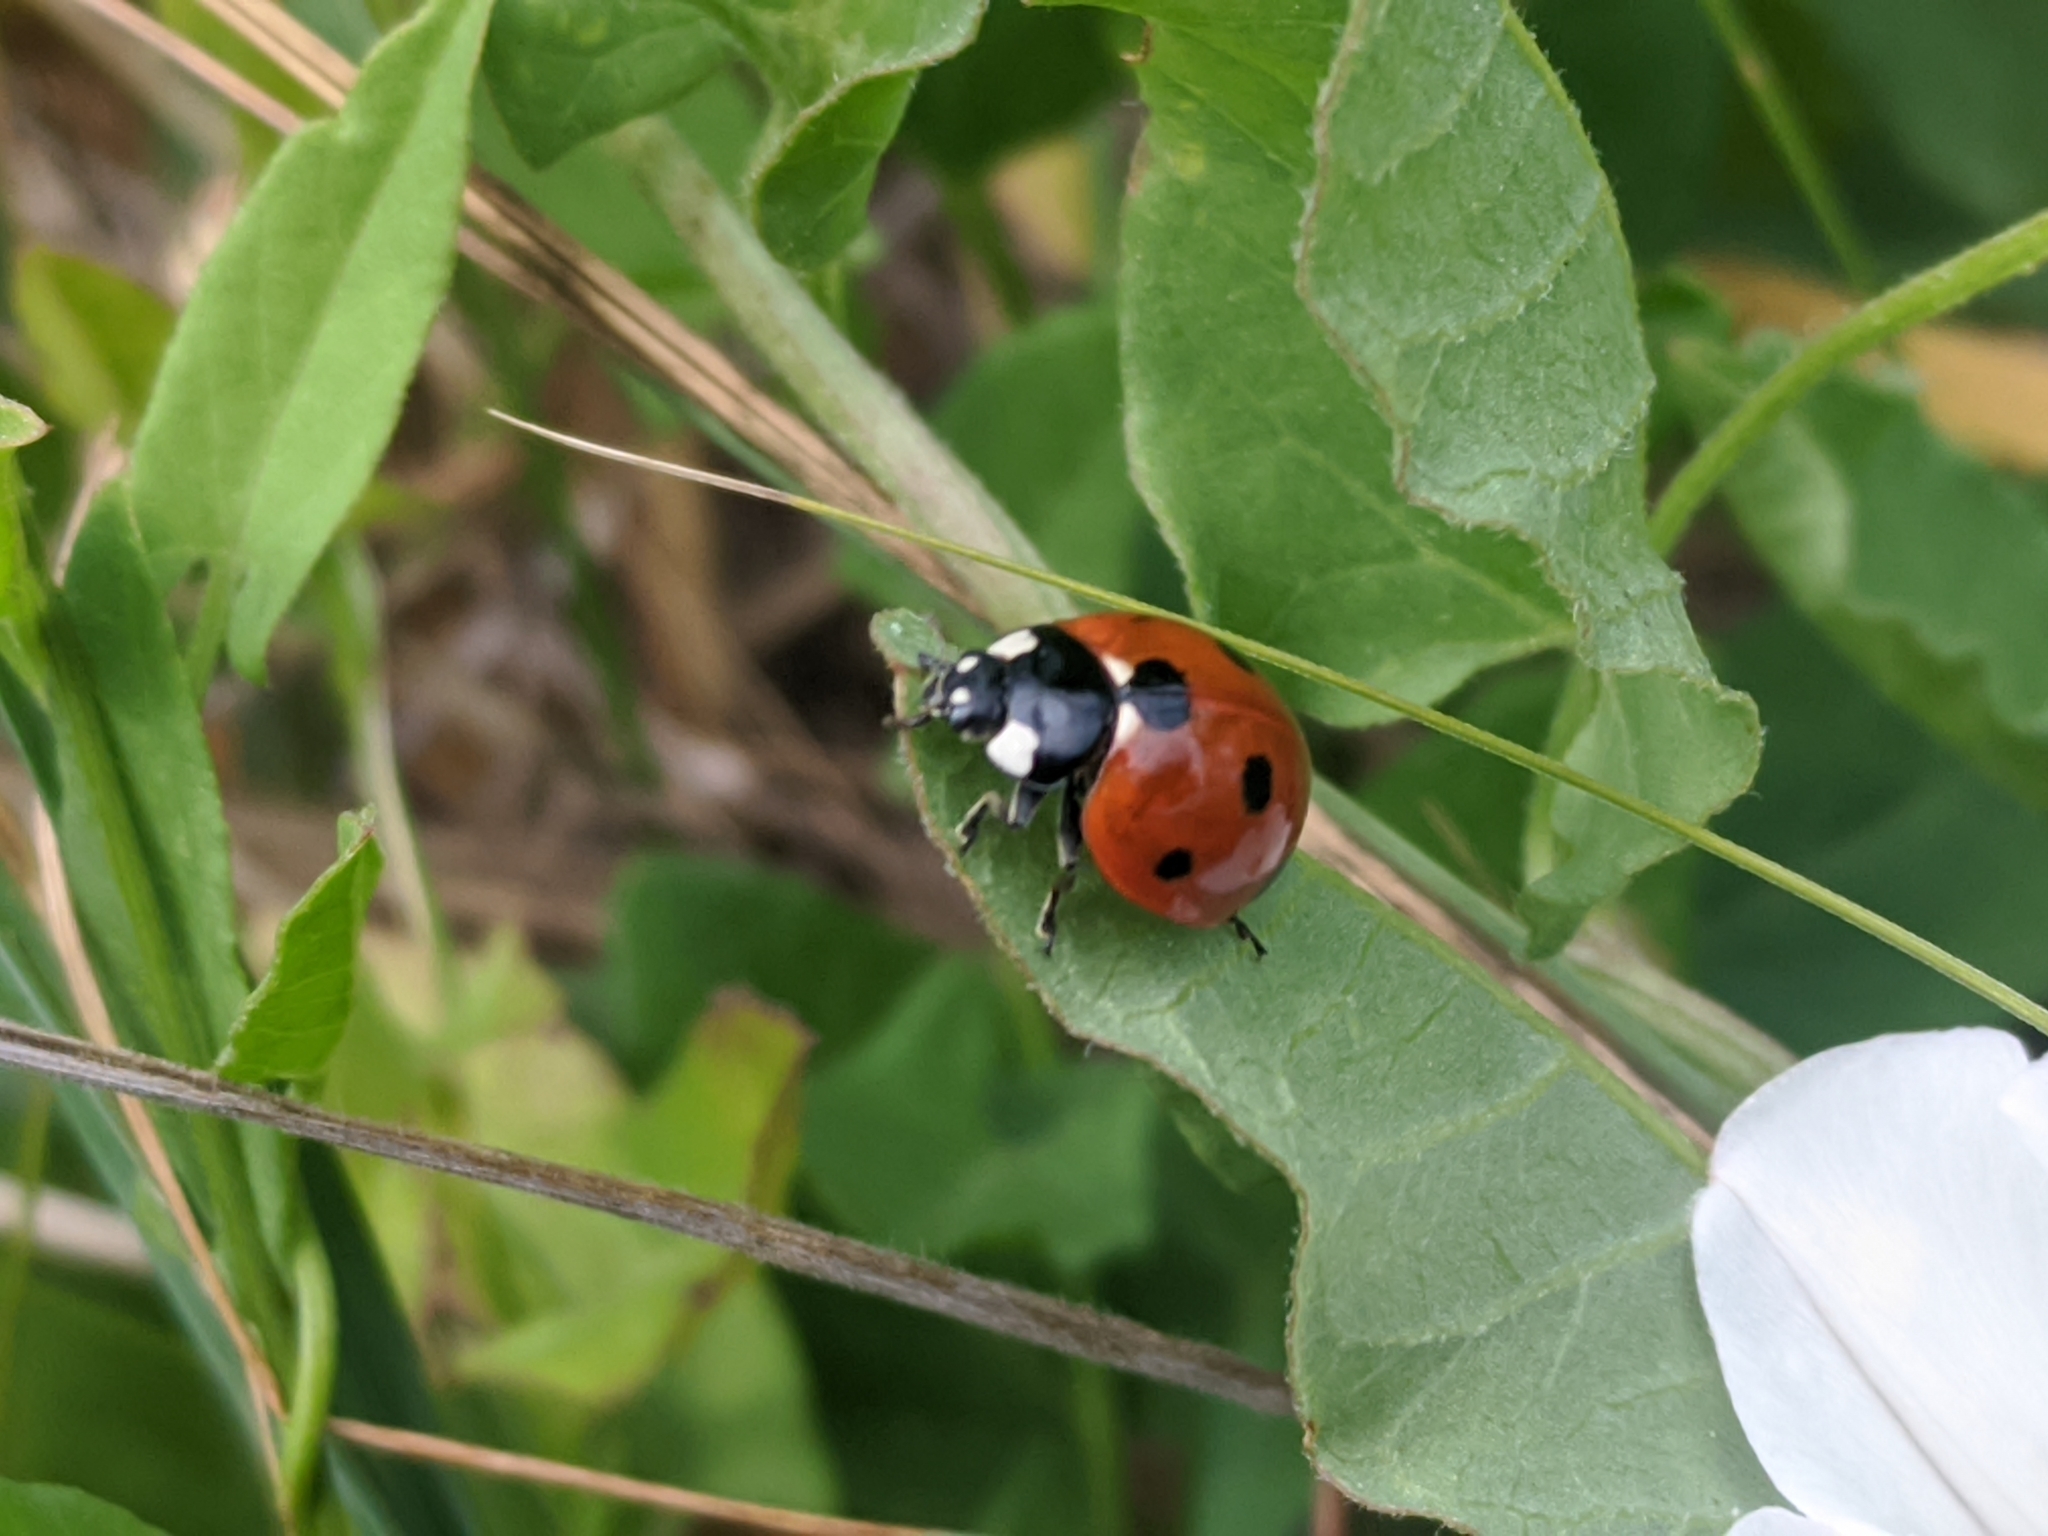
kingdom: Animalia
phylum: Arthropoda
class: Insecta
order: Coleoptera
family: Coccinellidae
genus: Coccinella
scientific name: Coccinella septempunctata
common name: Sevenspotted lady beetle
